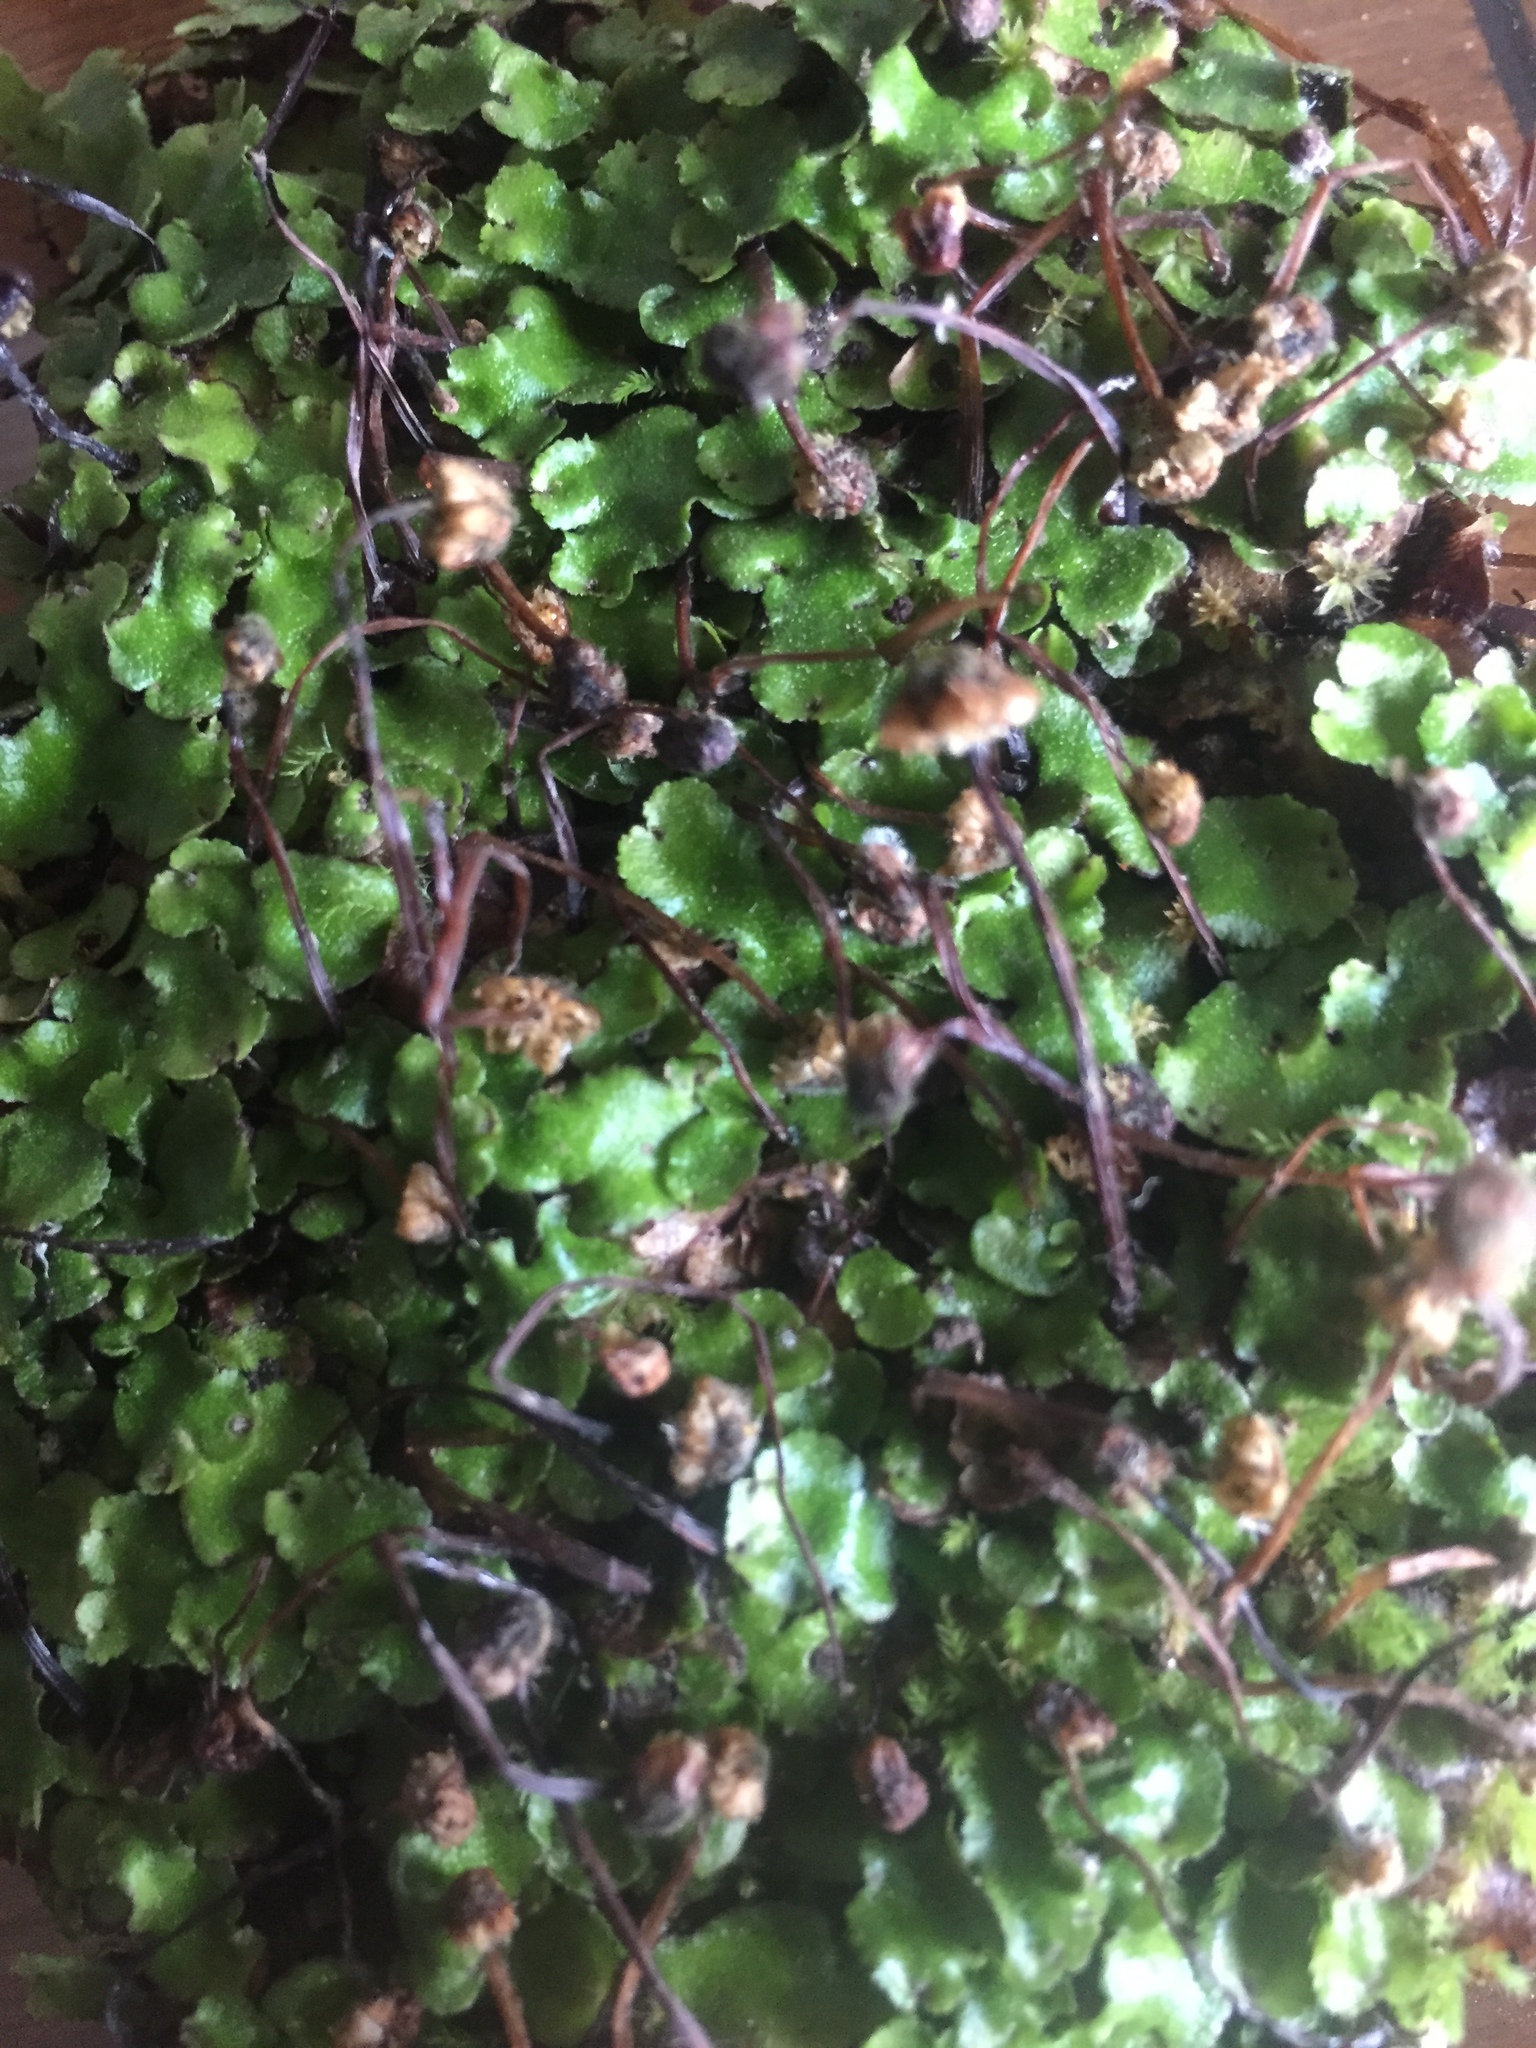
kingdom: Plantae
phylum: Marchantiophyta
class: Marchantiopsida
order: Marchantiales
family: Aytoniaceae
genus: Reboulia
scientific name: Reboulia hemisphaerica
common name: Purple-margined liverwort
